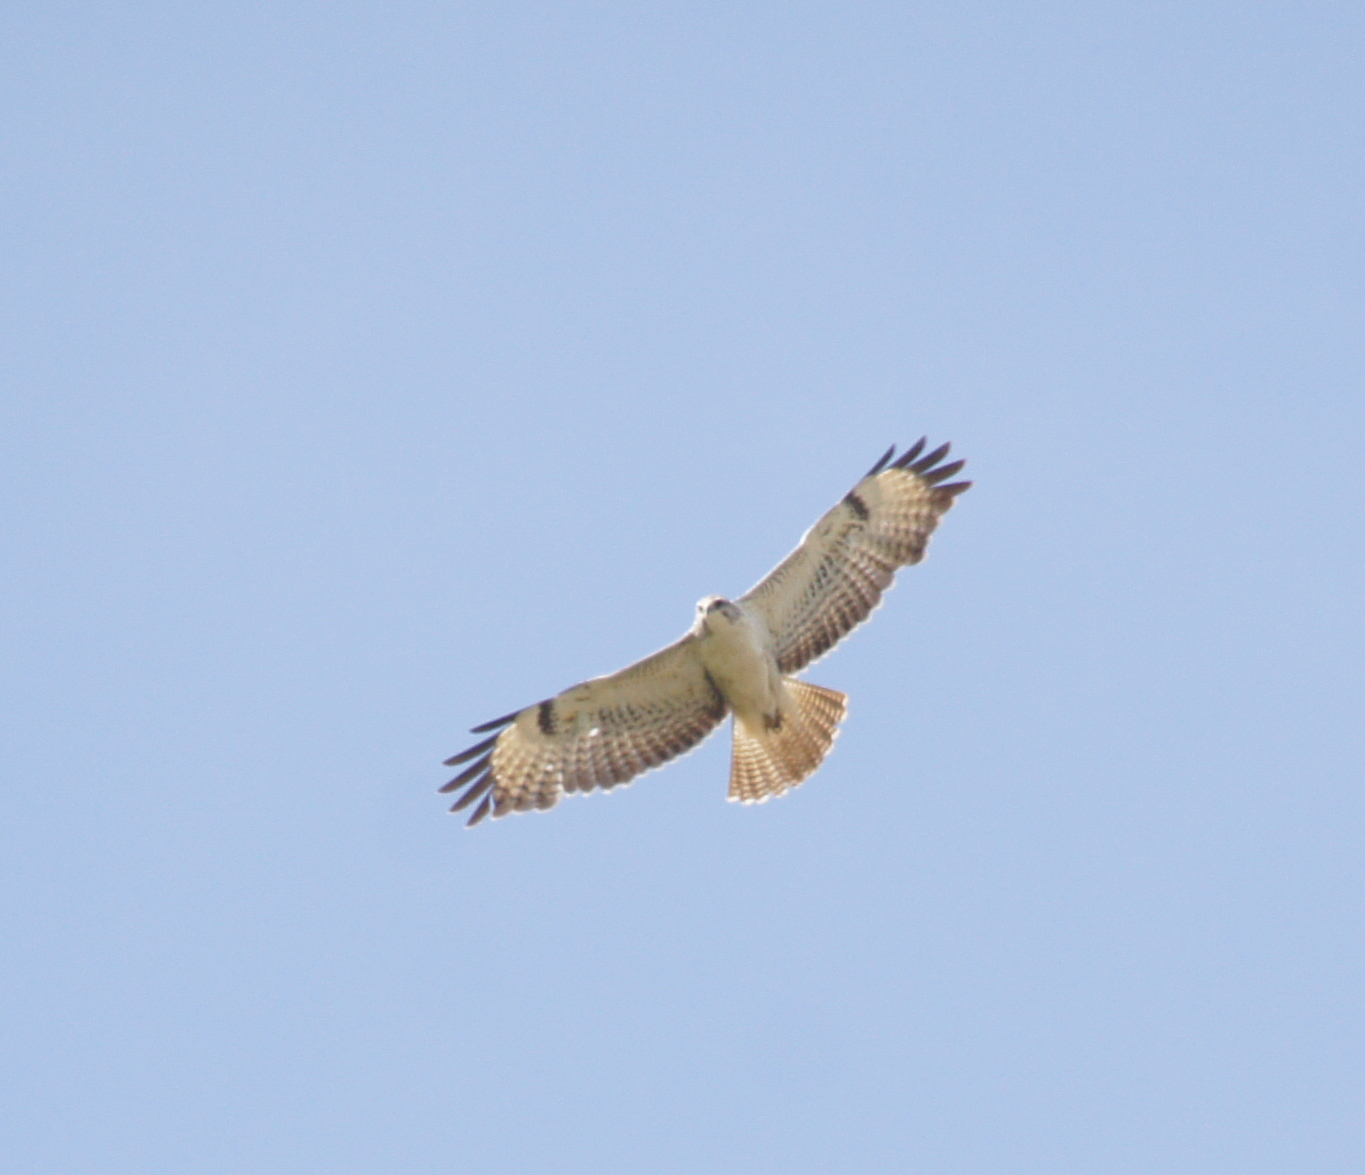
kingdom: Animalia
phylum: Chordata
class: Aves
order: Accipitriformes
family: Accipitridae
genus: Buteo
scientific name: Buteo buteo
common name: Common buzzard
